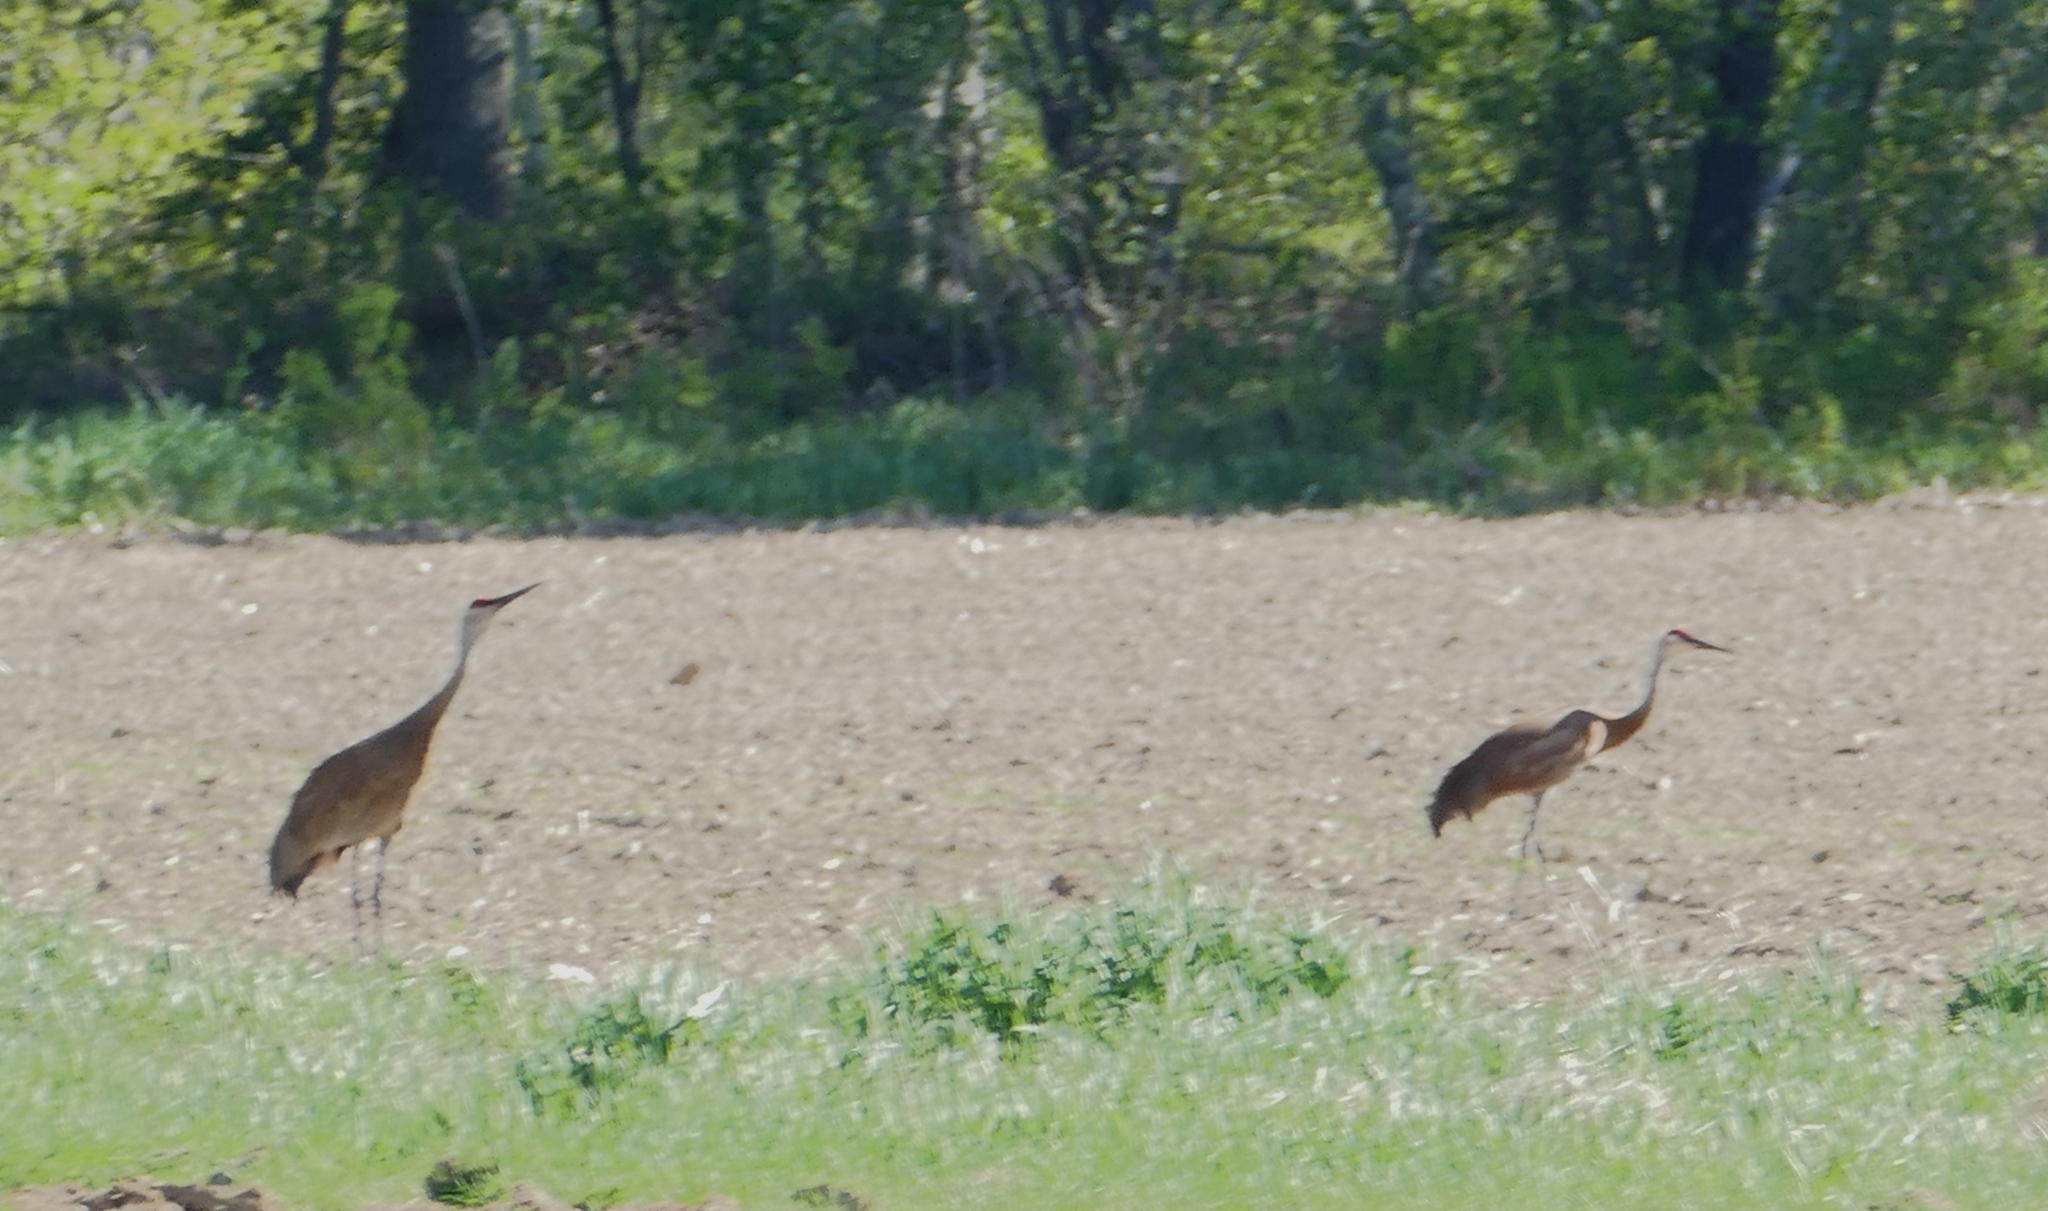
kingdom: Animalia
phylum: Chordata
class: Aves
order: Gruiformes
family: Gruidae
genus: Grus
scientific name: Grus canadensis
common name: Sandhill crane
